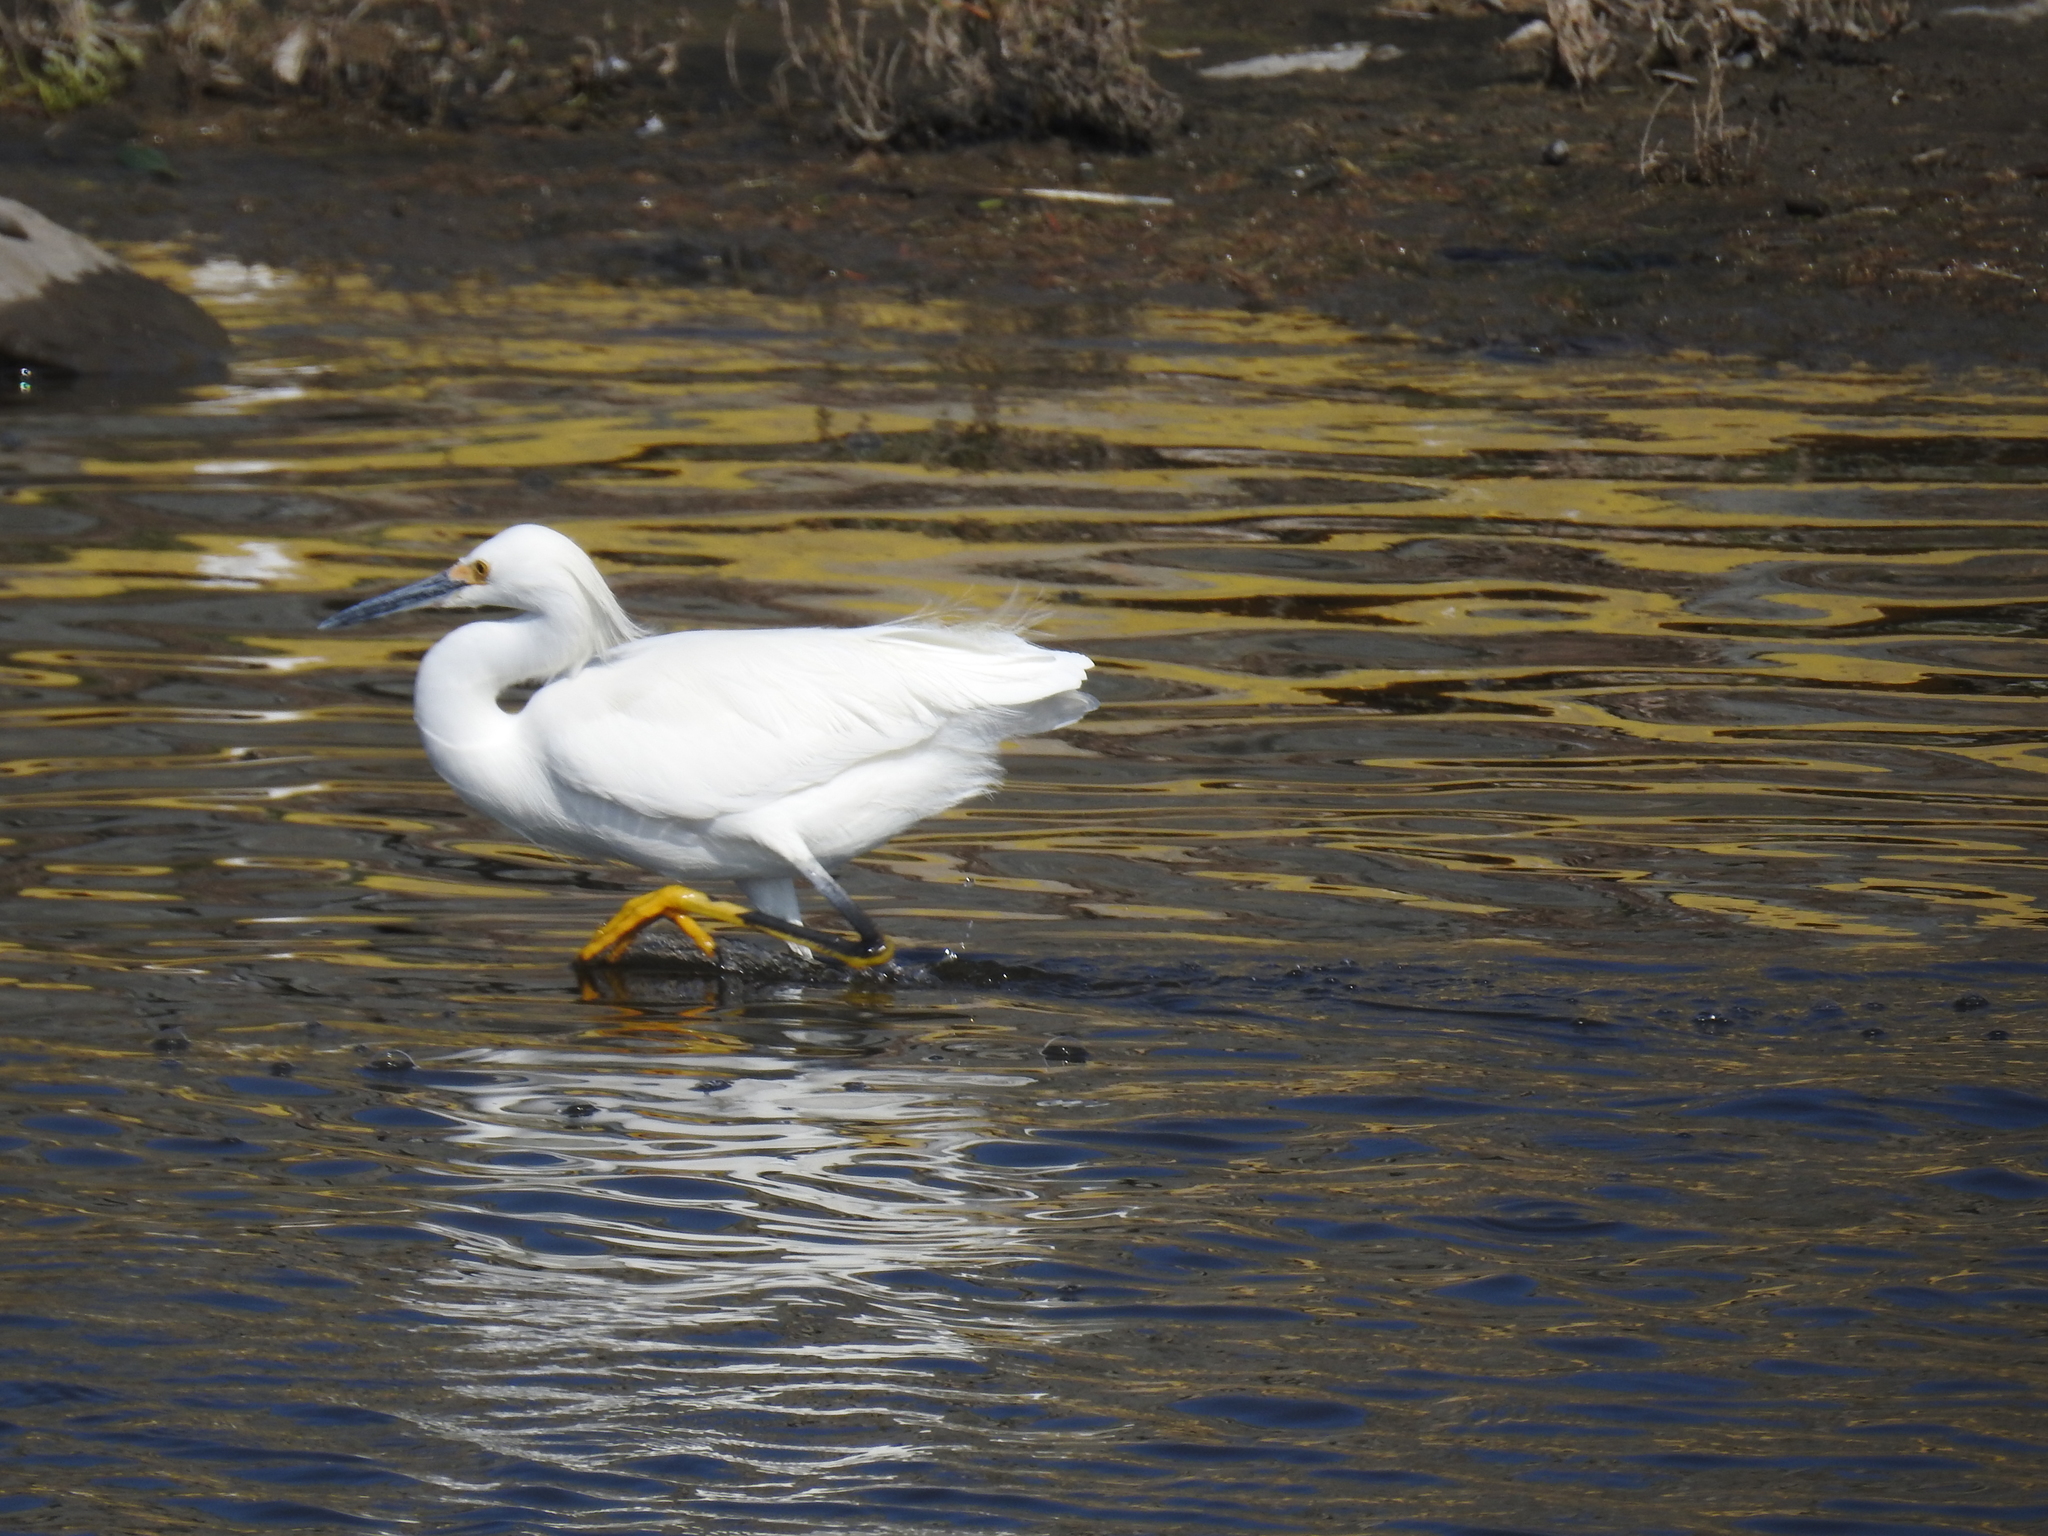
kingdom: Animalia
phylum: Chordata
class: Aves
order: Pelecaniformes
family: Ardeidae
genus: Egretta
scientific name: Egretta thula
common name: Snowy egret
